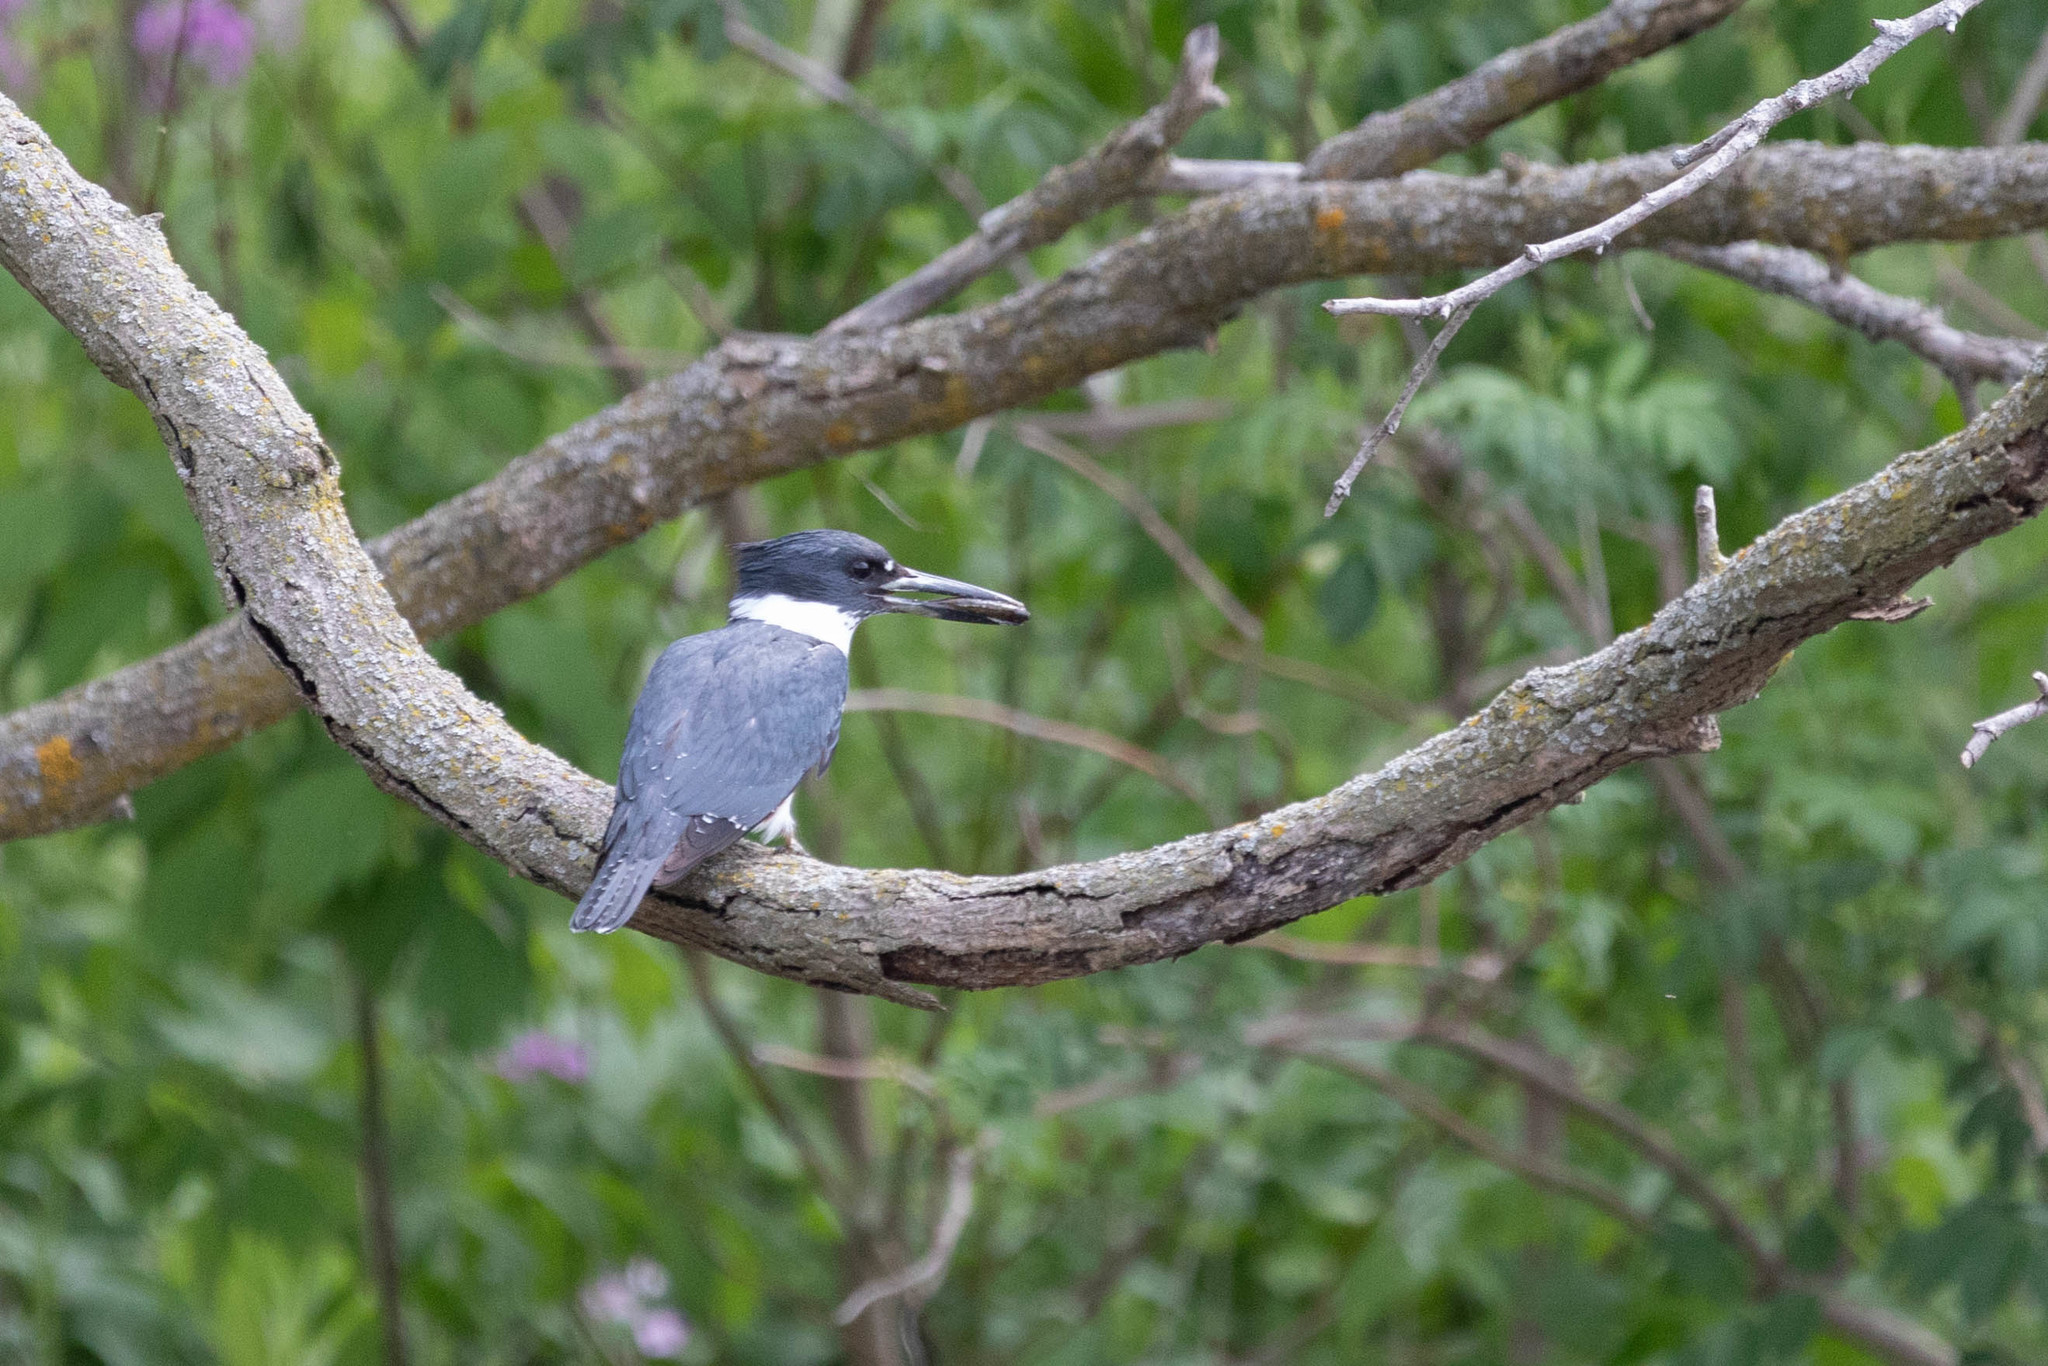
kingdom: Animalia
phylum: Chordata
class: Aves
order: Coraciiformes
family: Alcedinidae
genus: Megaceryle
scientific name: Megaceryle alcyon
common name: Belted kingfisher
